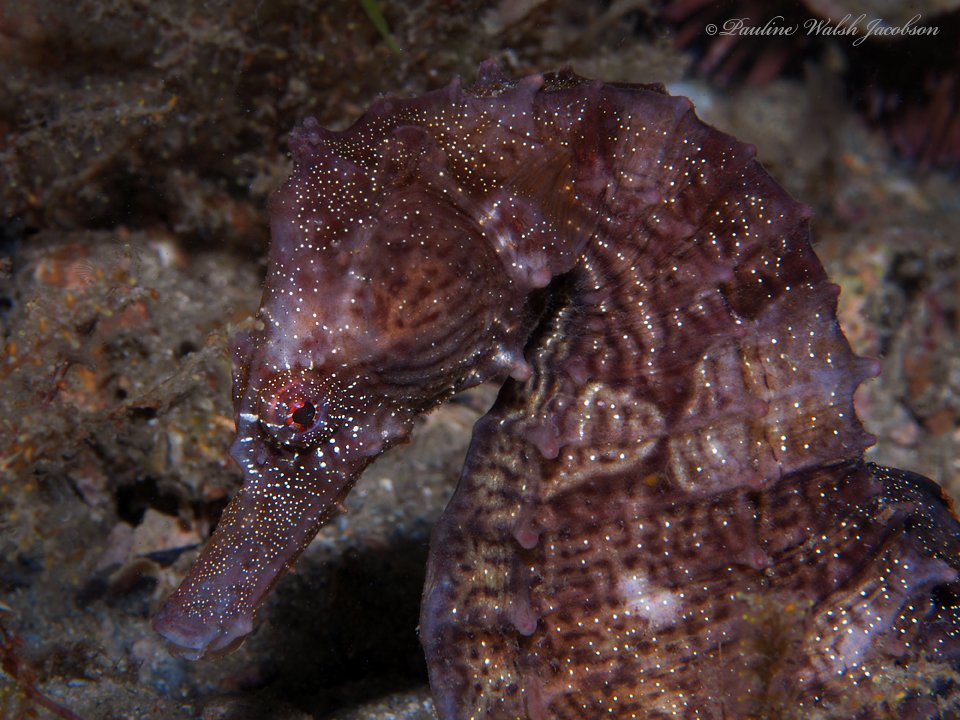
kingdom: Animalia
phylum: Chordata
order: Syngnathiformes
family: Syngnathidae
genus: Hippocampus
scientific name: Hippocampus erectus
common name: Lined seahorse
